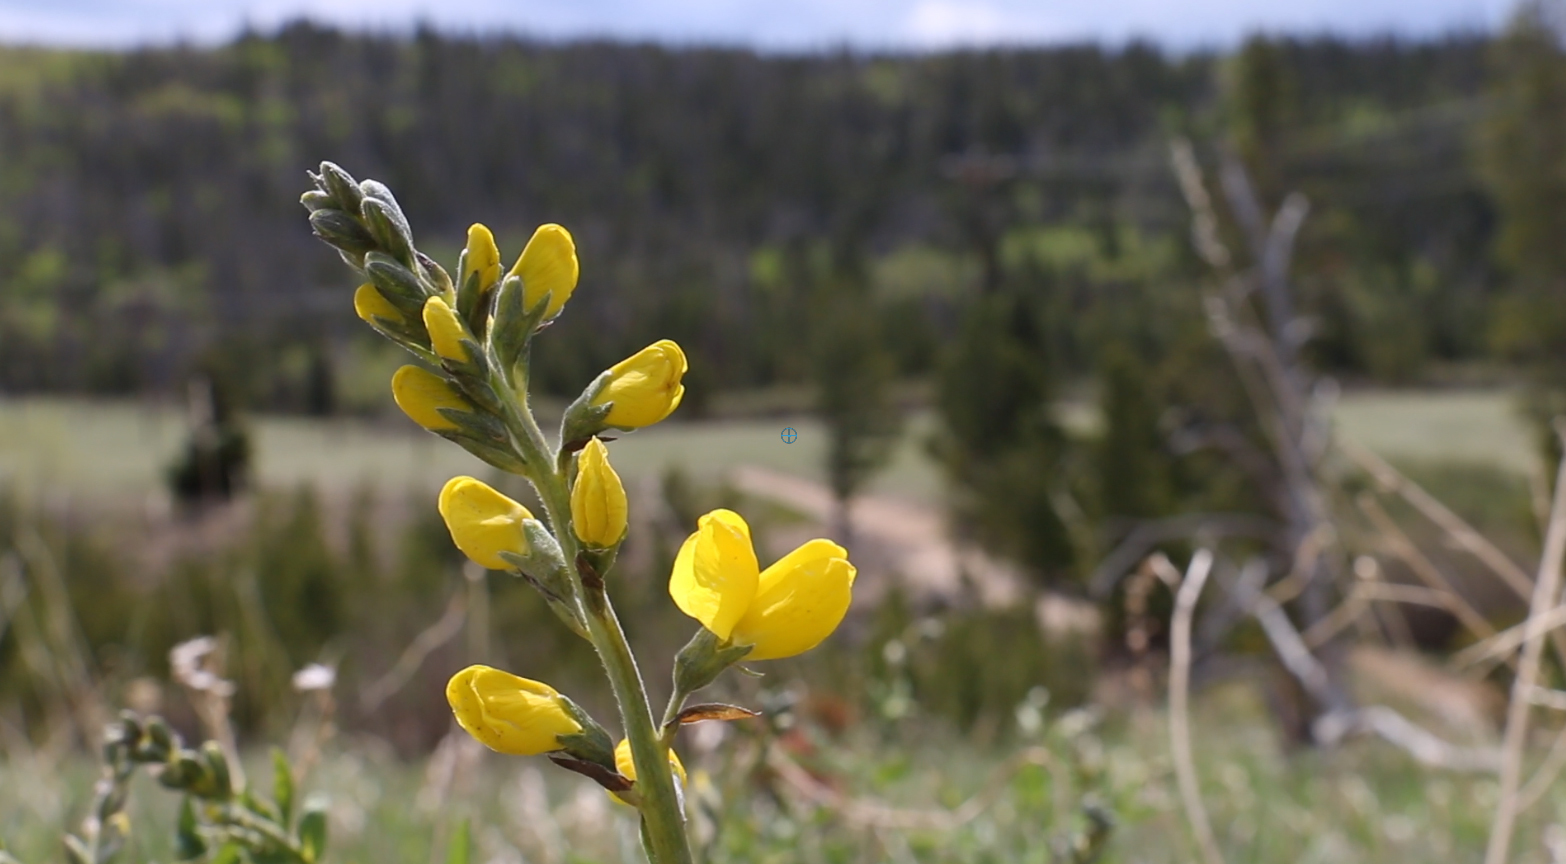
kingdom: Plantae
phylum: Tracheophyta
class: Magnoliopsida
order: Fabales
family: Fabaceae
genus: Thermopsis
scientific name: Thermopsis rhombifolia
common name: Circle-pod-pea
